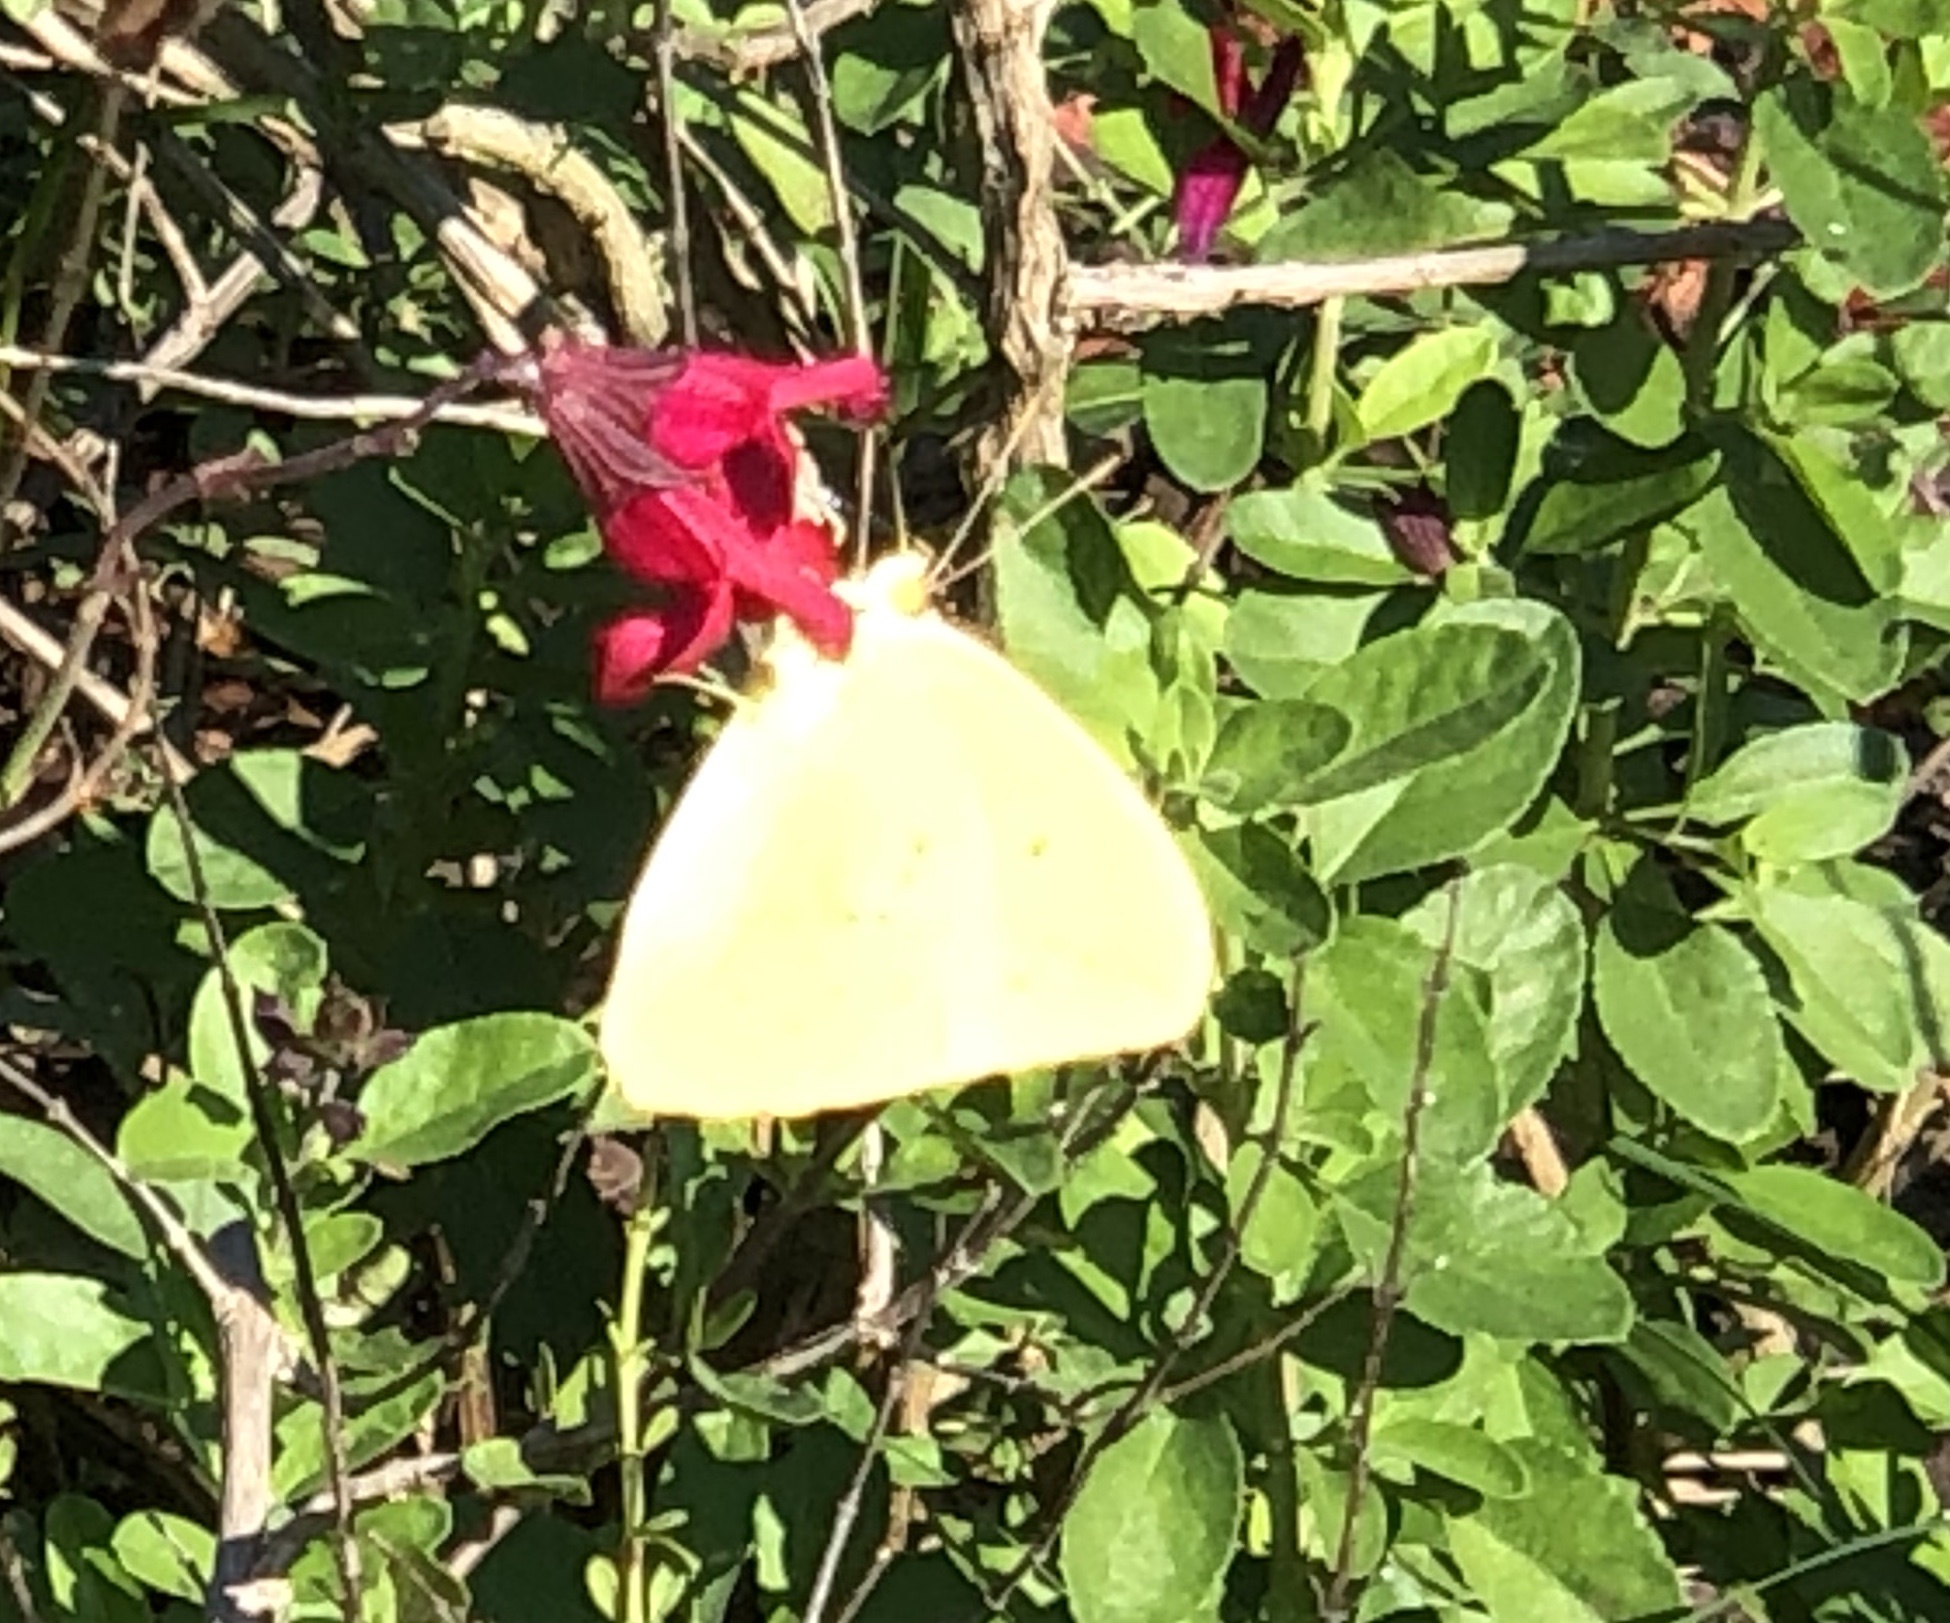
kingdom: Animalia
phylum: Arthropoda
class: Insecta
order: Lepidoptera
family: Pieridae
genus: Phoebis
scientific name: Phoebis sennae
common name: Cloudless sulphur
